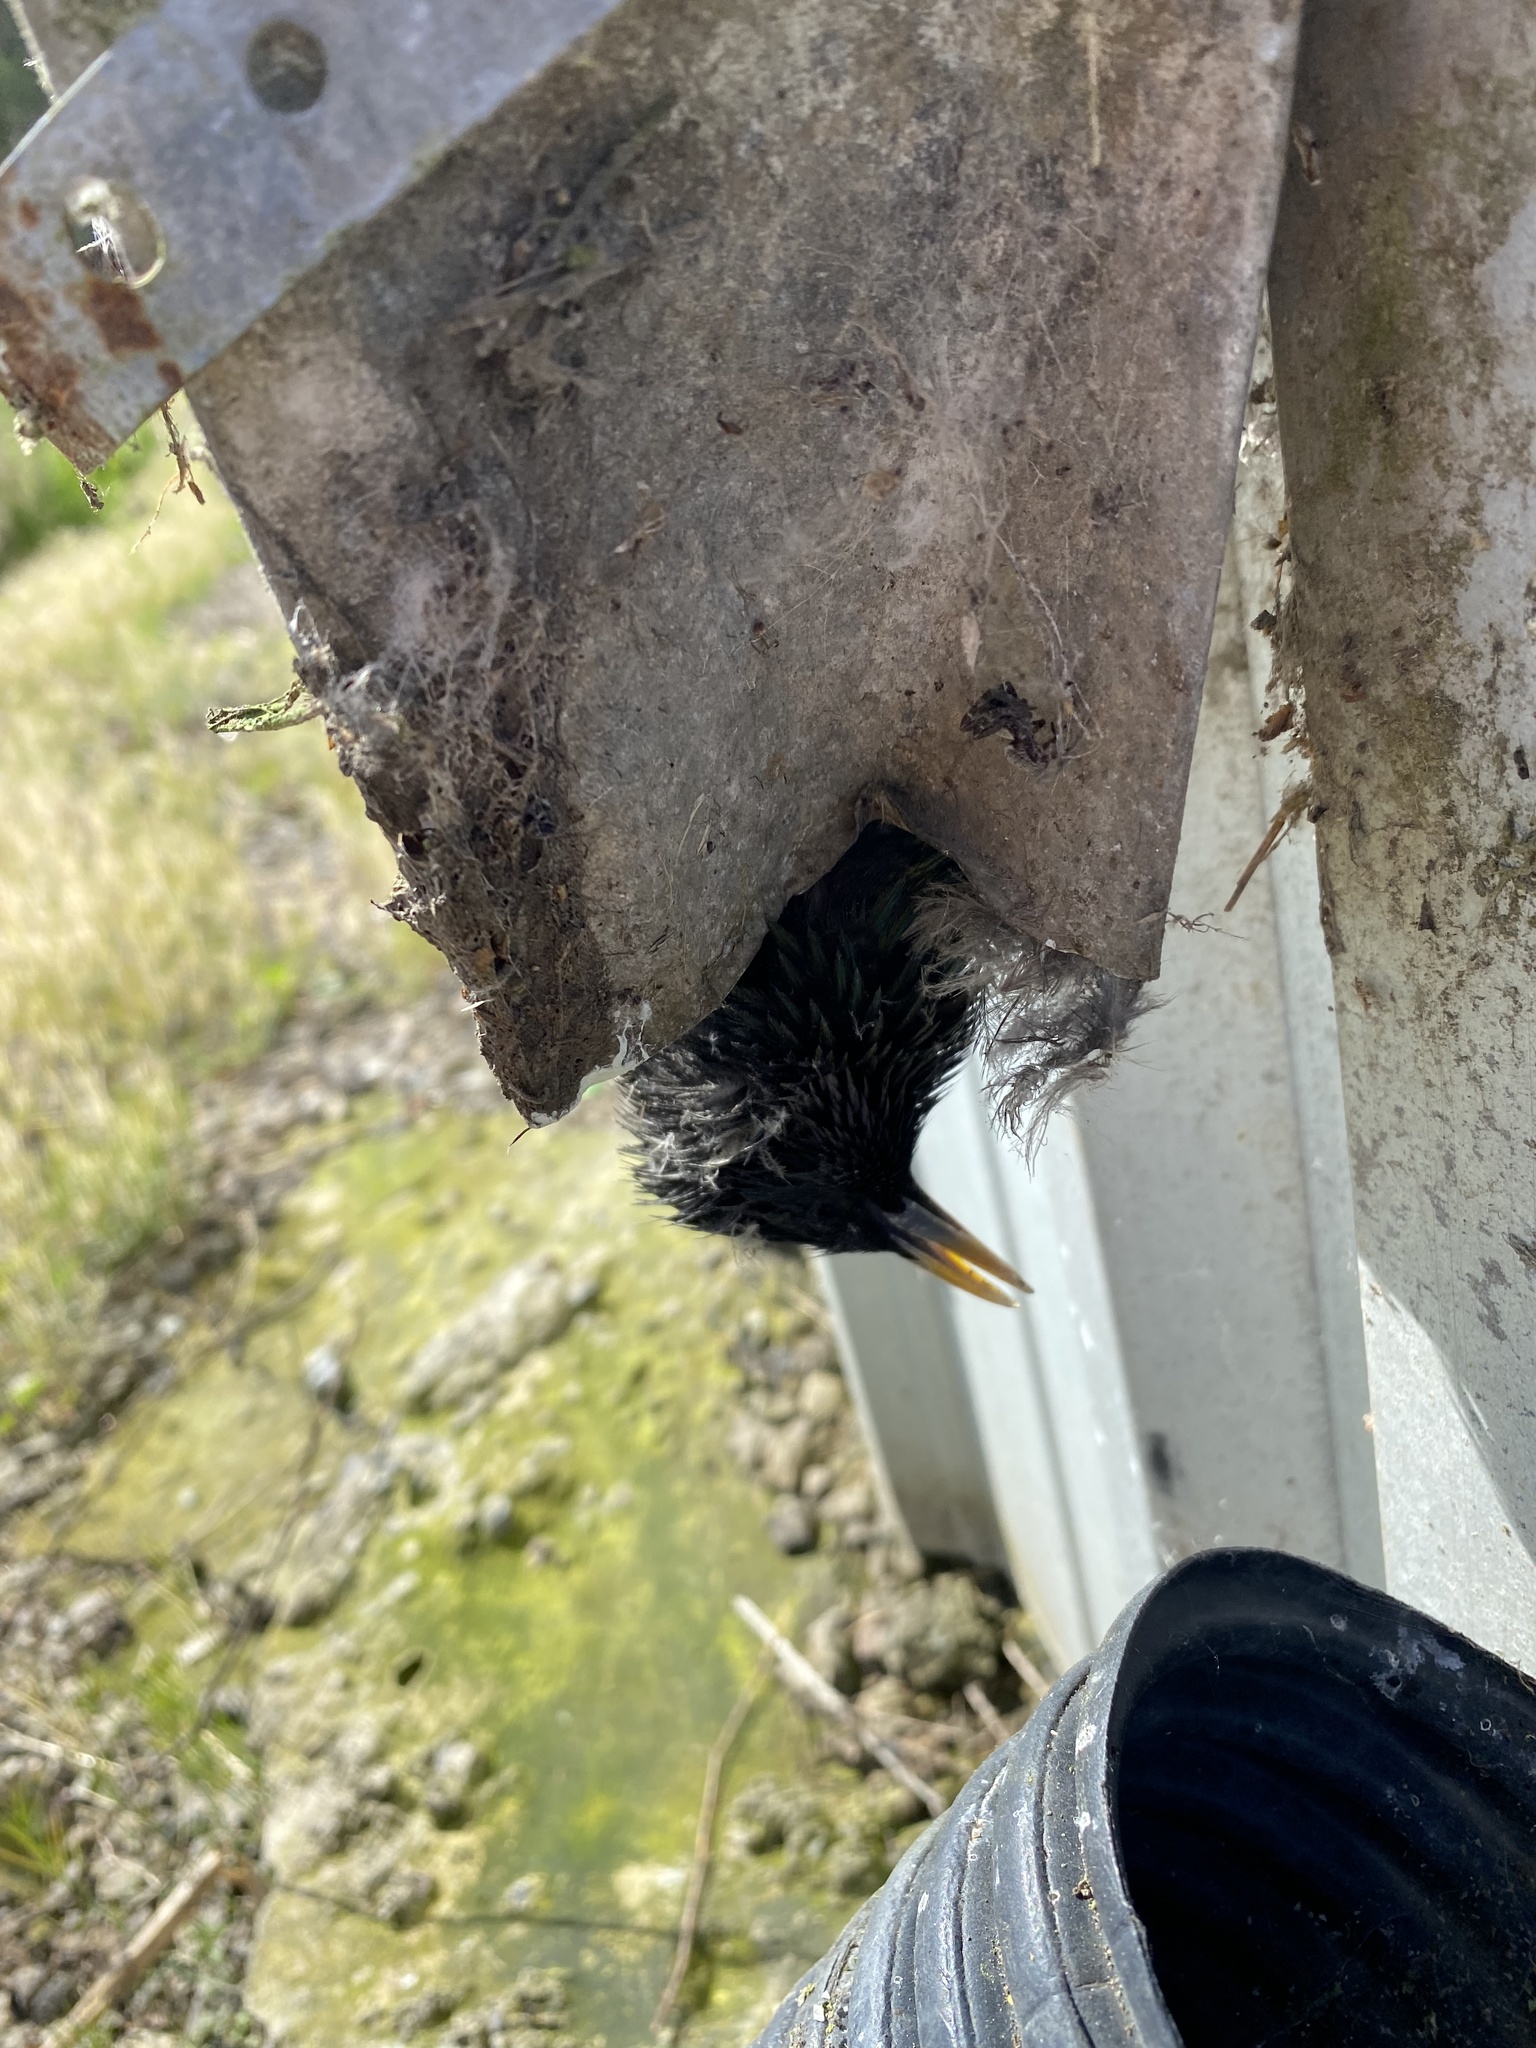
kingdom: Animalia
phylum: Chordata
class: Aves
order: Passeriformes
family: Sturnidae
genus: Sturnus
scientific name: Sturnus vulgaris
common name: Common starling
